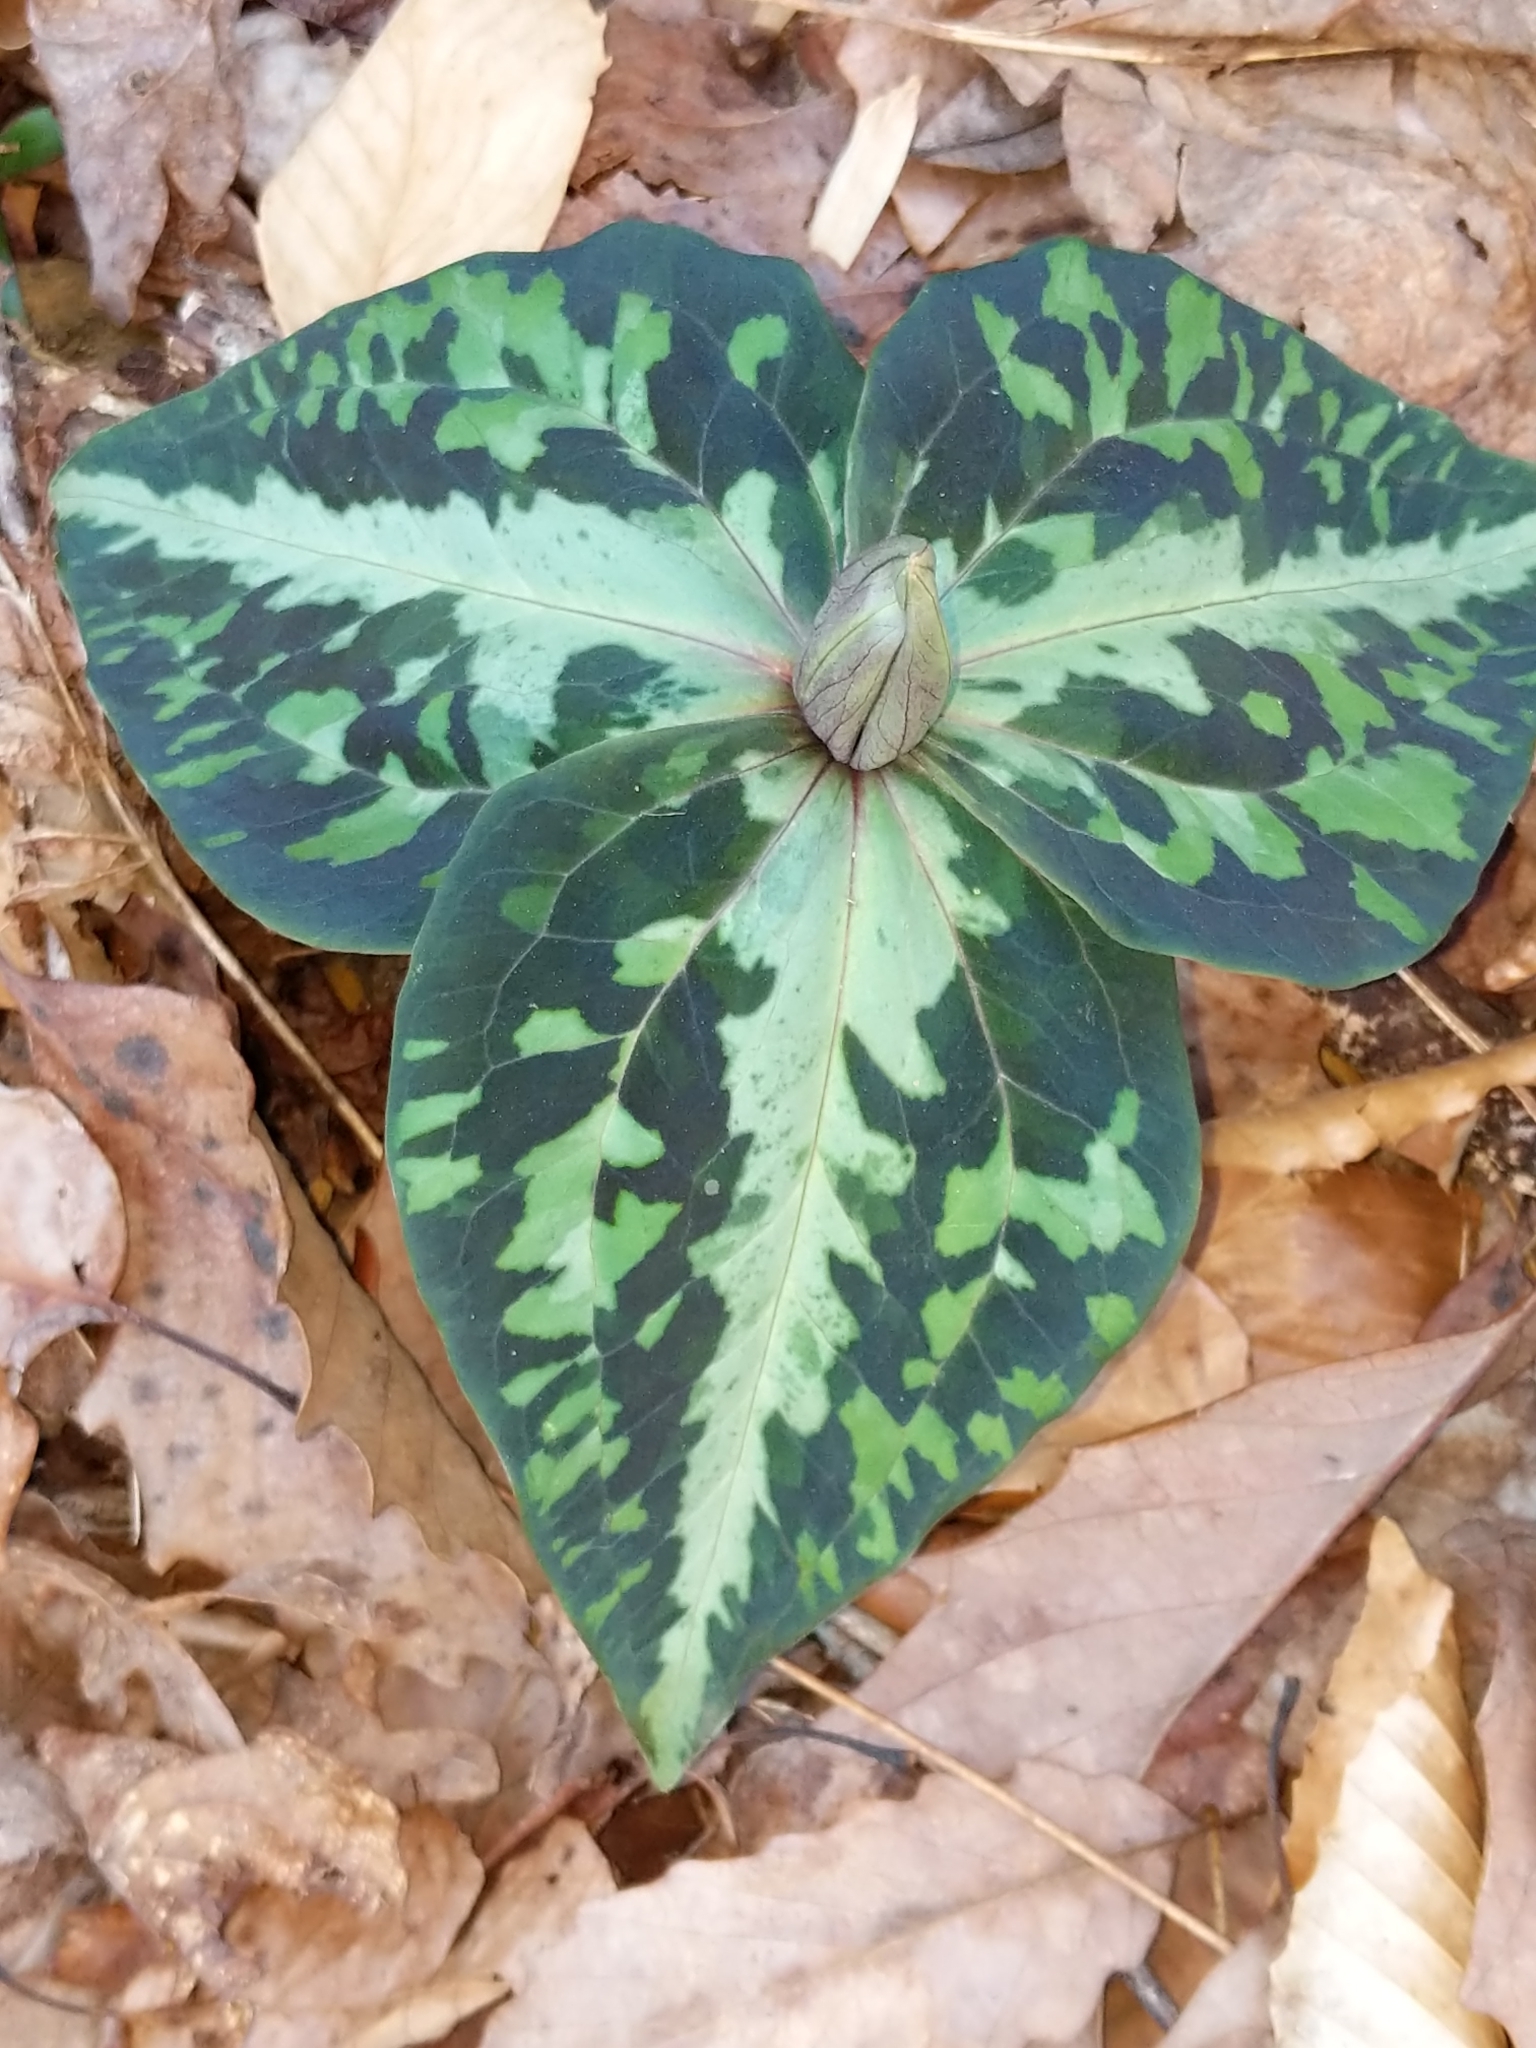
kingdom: Plantae
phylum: Tracheophyta
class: Liliopsida
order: Liliales
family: Melanthiaceae
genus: Trillium
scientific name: Trillium underwoodii
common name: Longbract wakerobin
